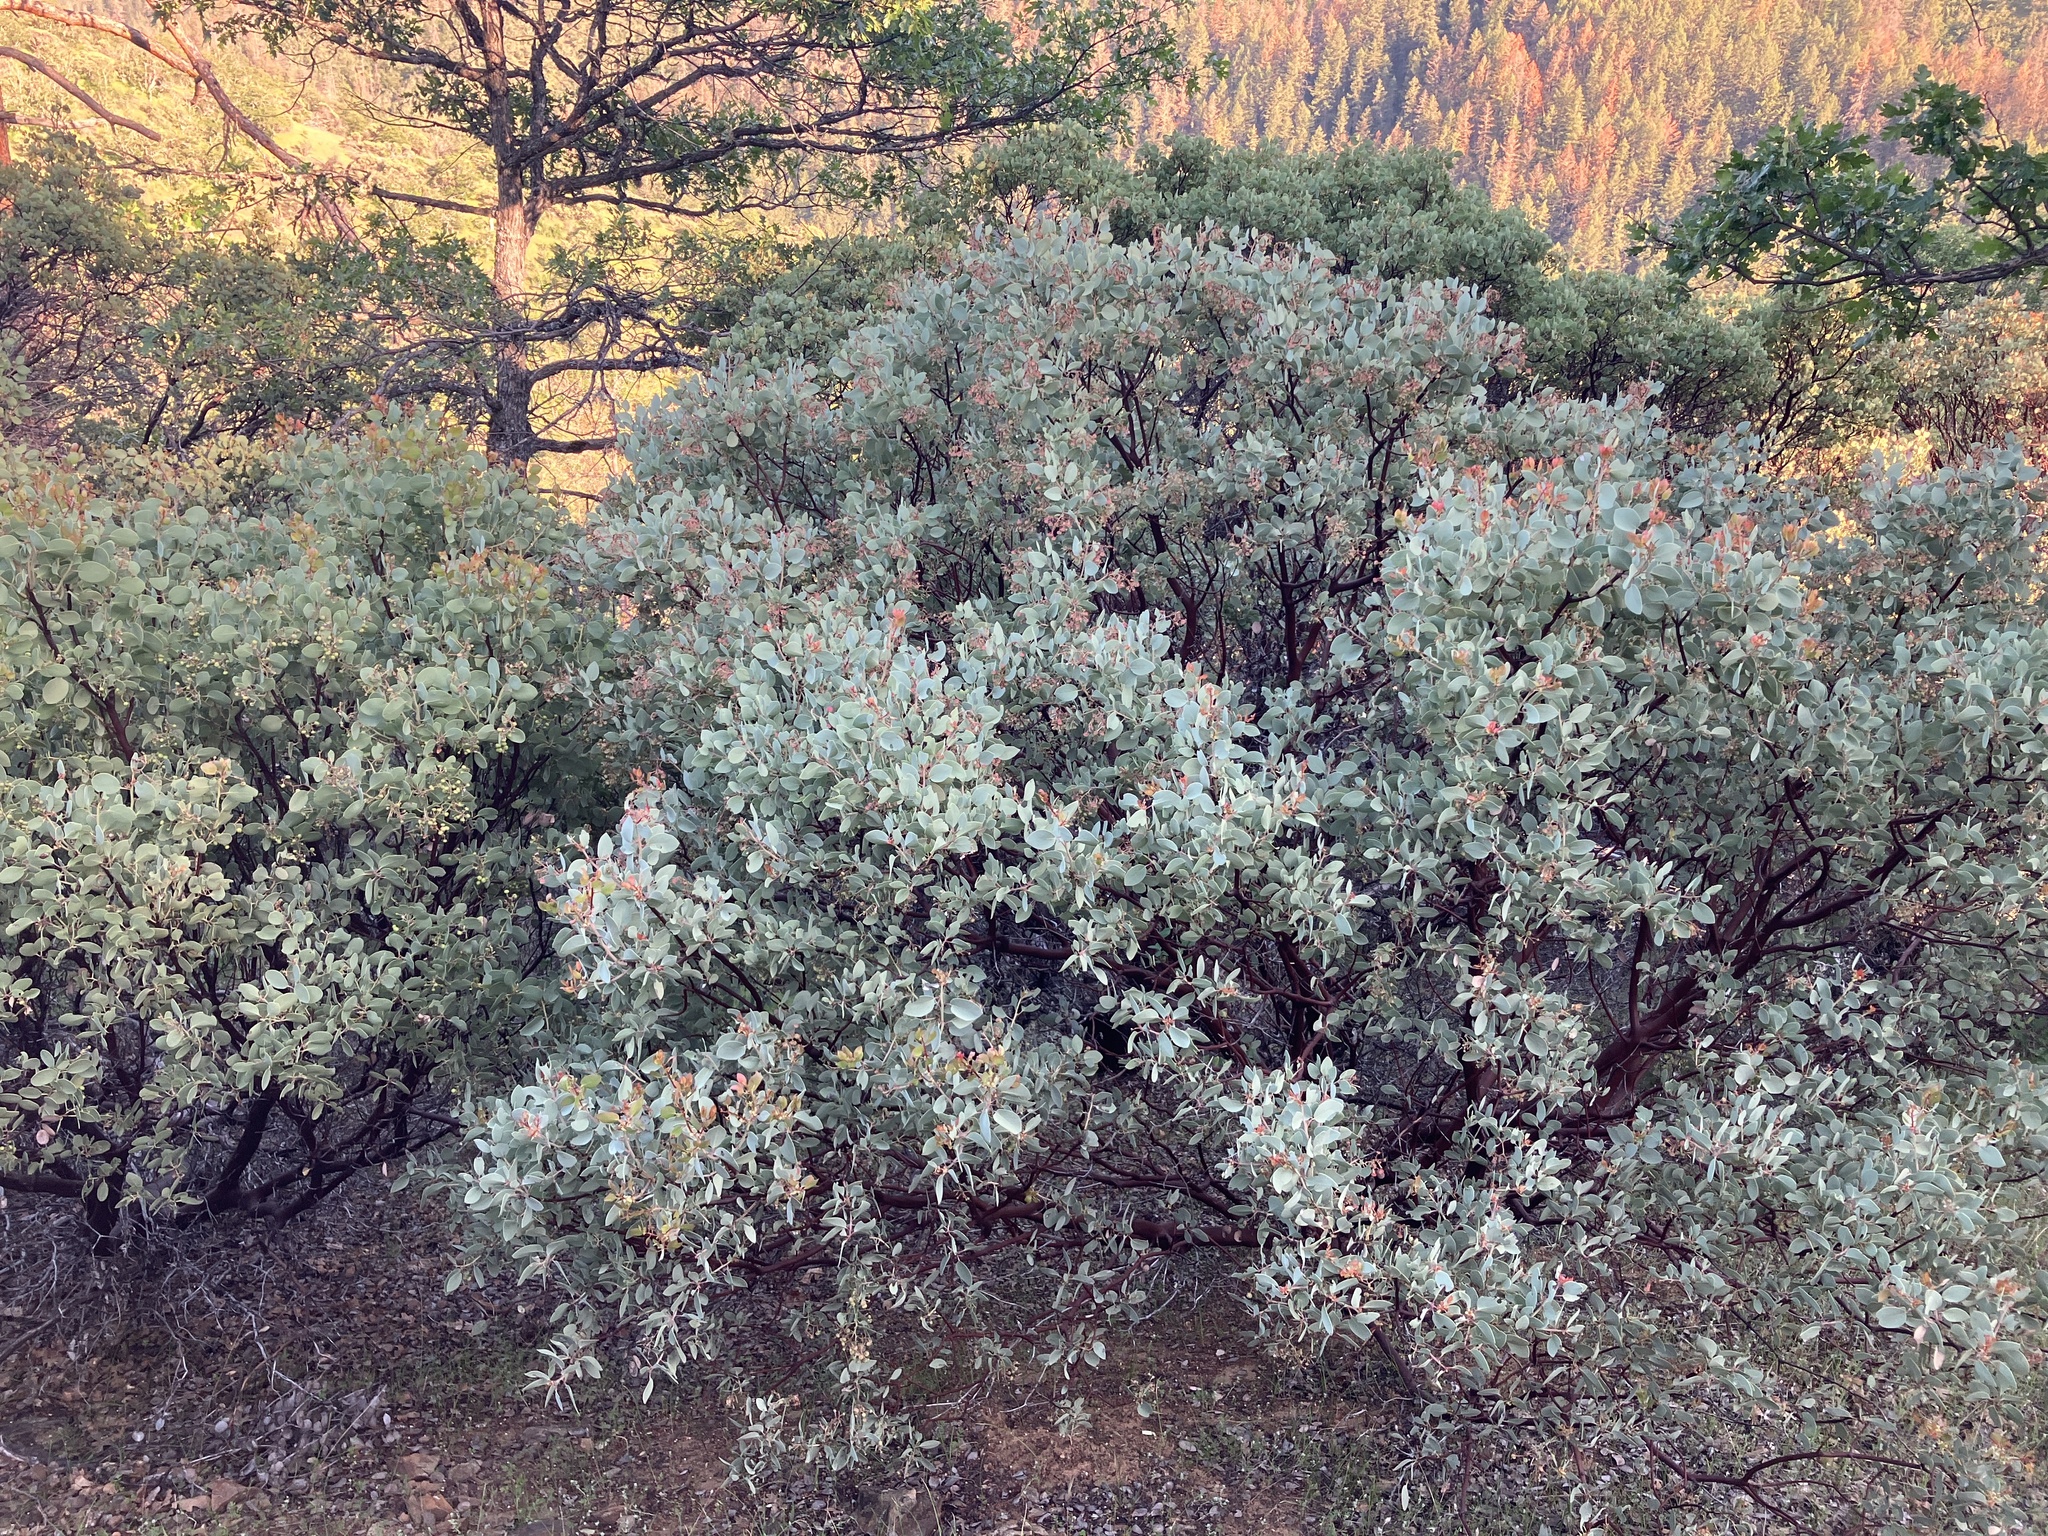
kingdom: Plantae
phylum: Tracheophyta
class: Magnoliopsida
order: Ericales
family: Ericaceae
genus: Arctostaphylos
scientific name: Arctostaphylos viscida
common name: White-leaf manzanita
